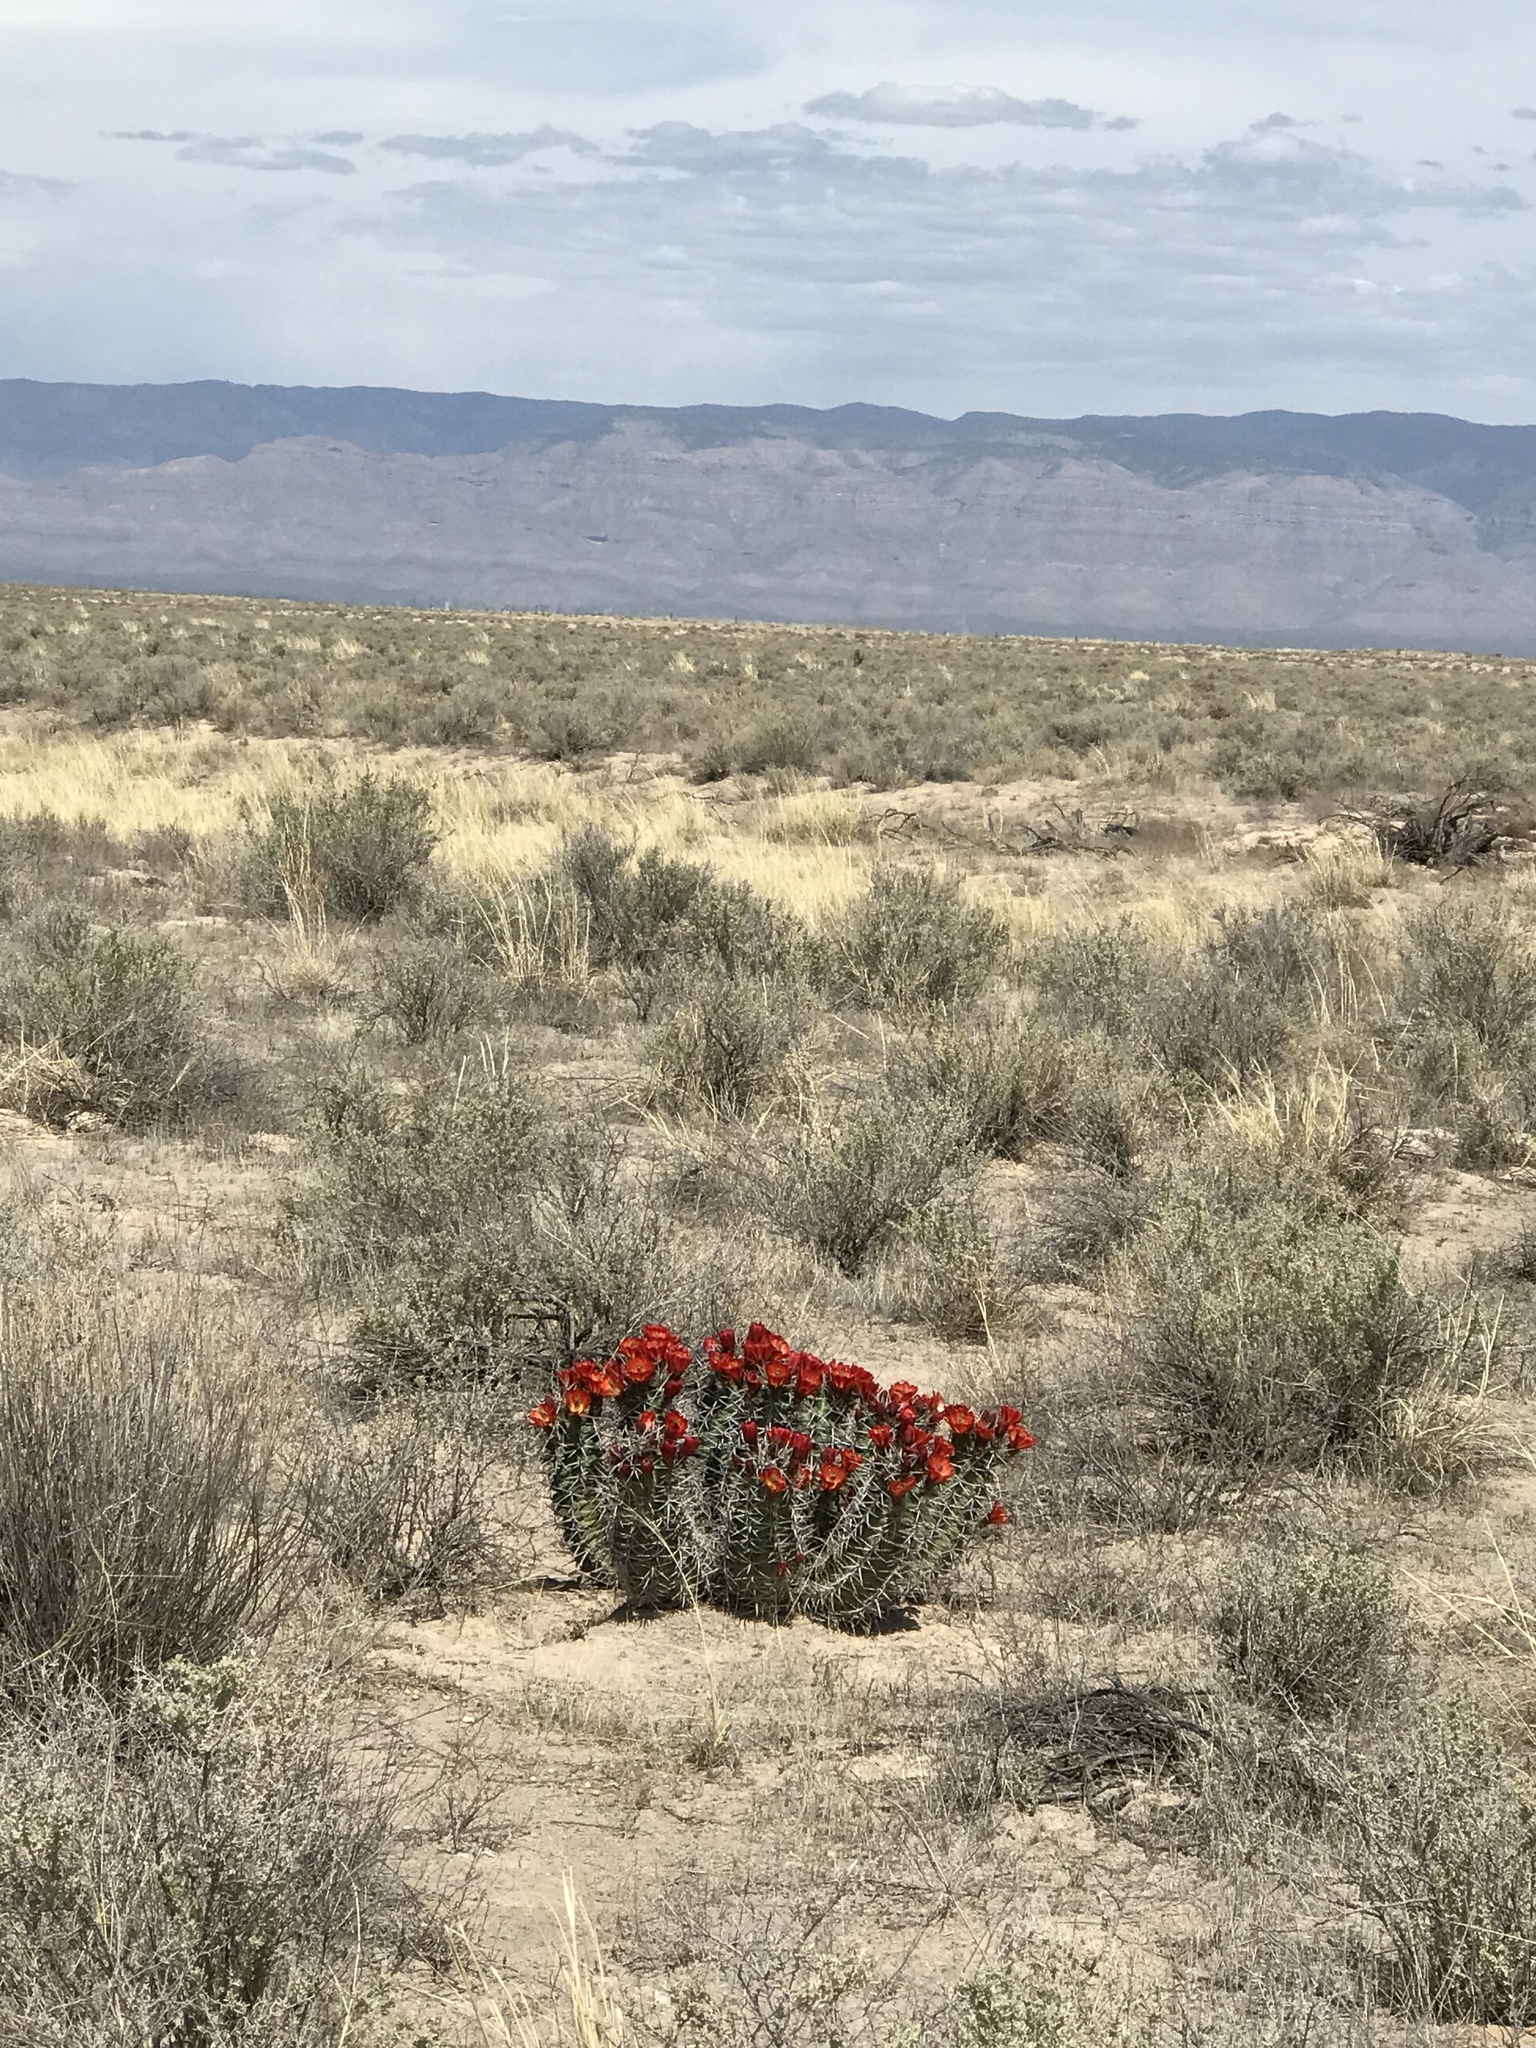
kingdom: Plantae
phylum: Tracheophyta
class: Magnoliopsida
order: Caryophyllales
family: Cactaceae
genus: Echinocereus
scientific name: Echinocereus triglochidiatus
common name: Claretcup hedgehog
